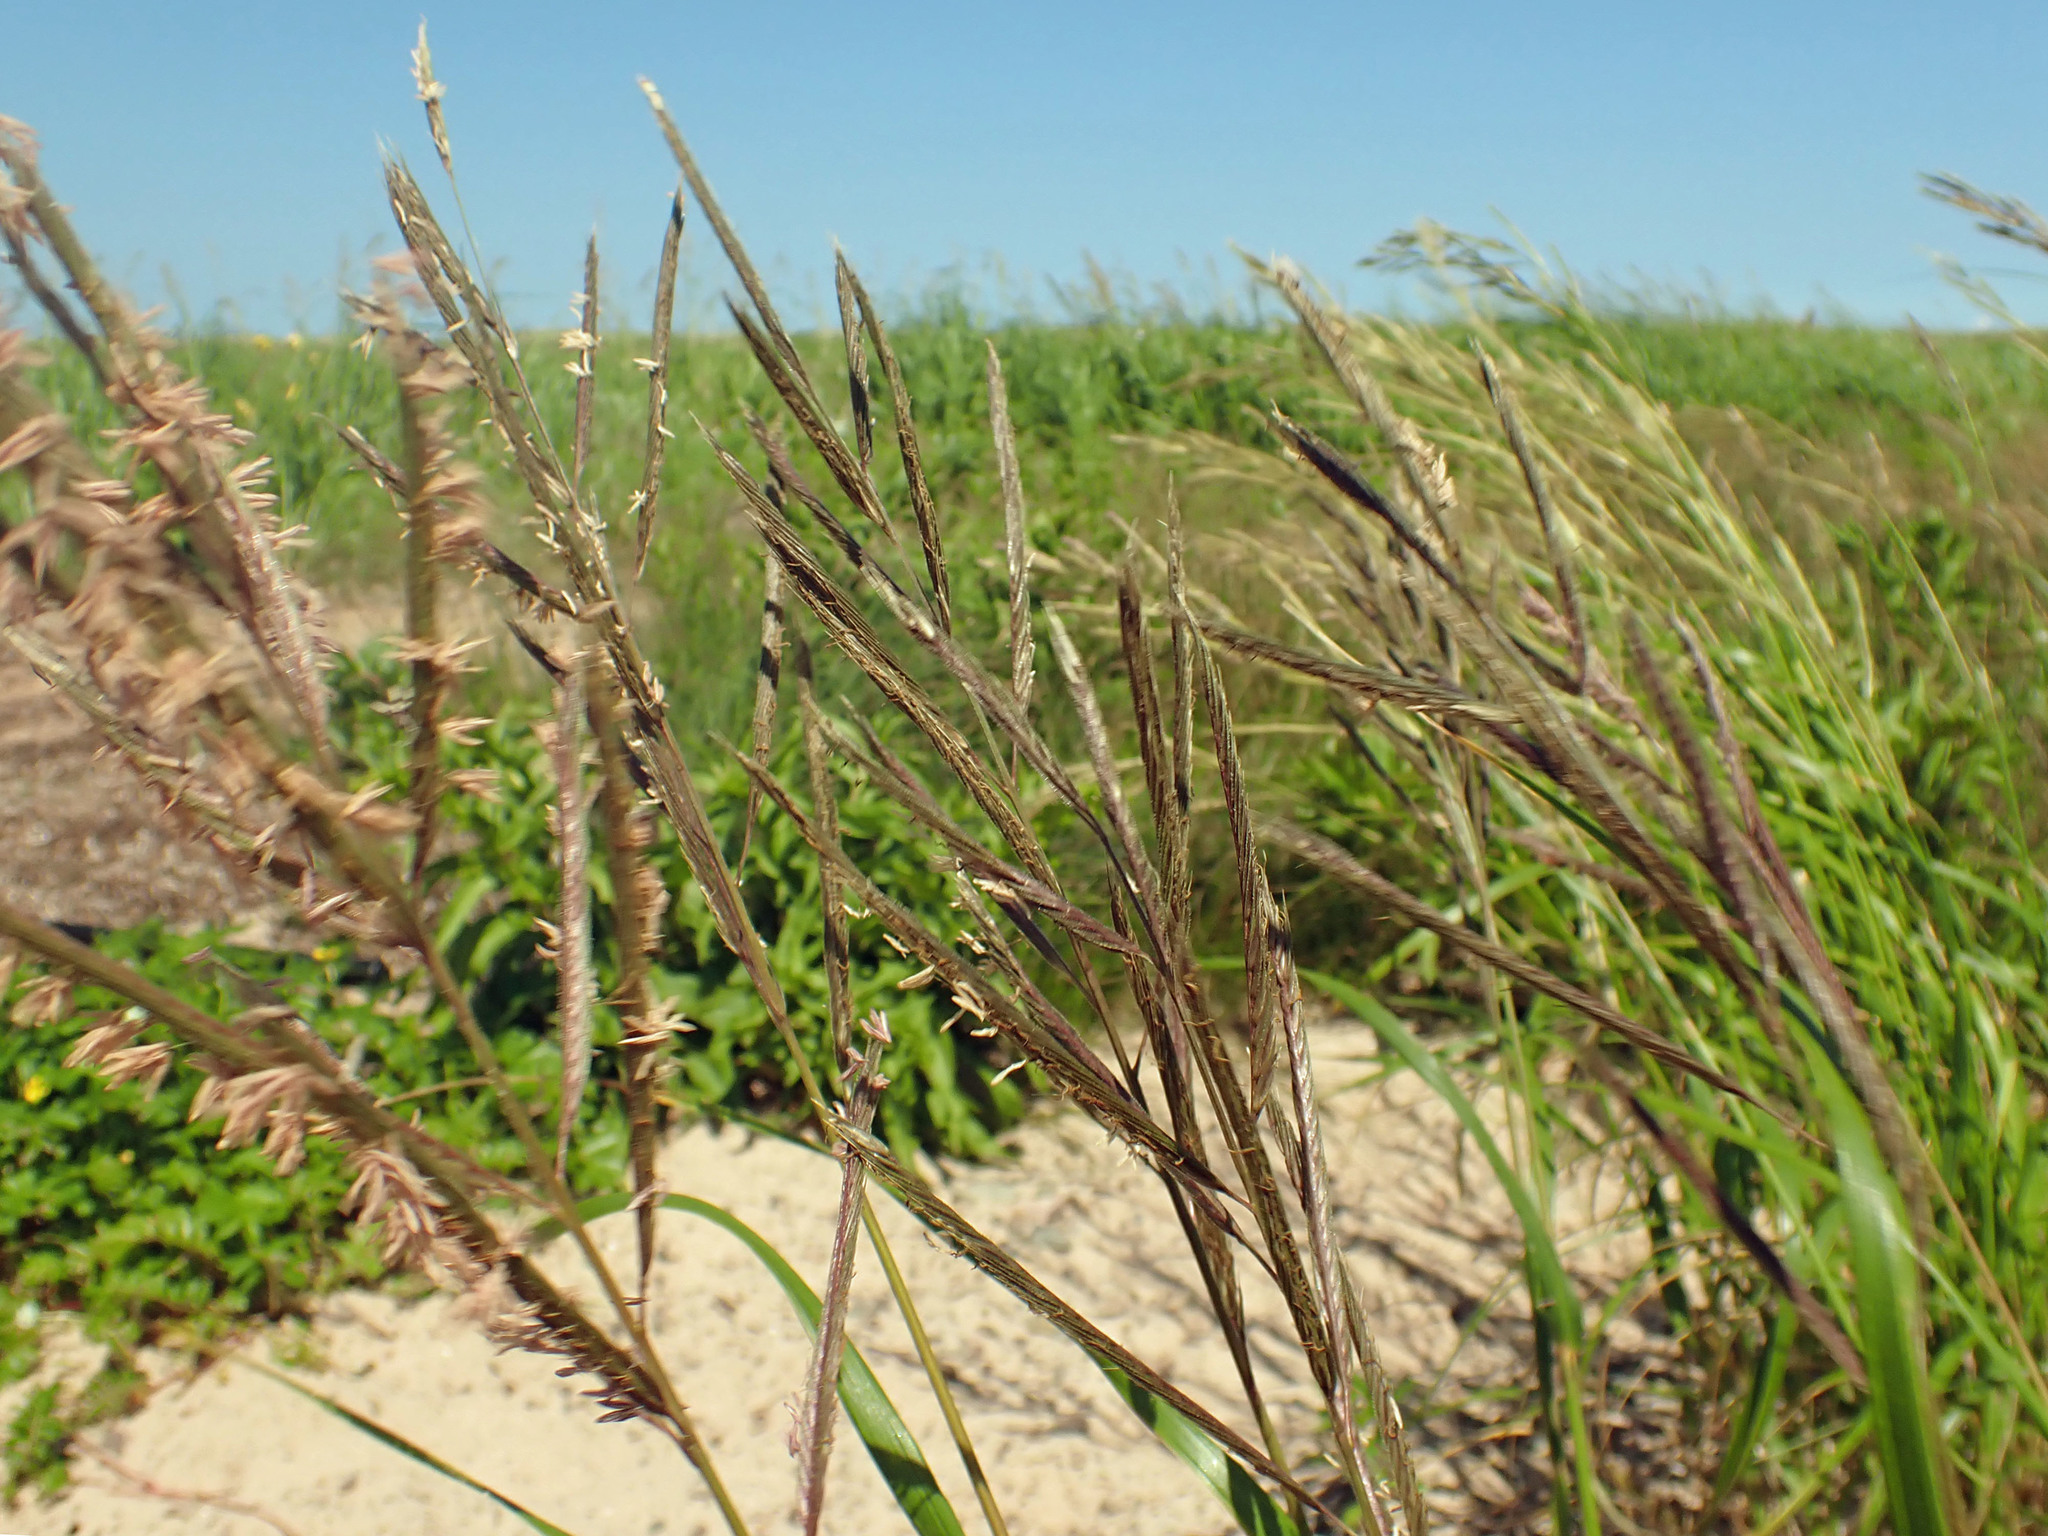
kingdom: Plantae
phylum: Tracheophyta
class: Liliopsida
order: Poales
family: Poaceae
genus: Sporobolus
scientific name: Sporobolus michauxianus
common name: Freshwater cordgrass
